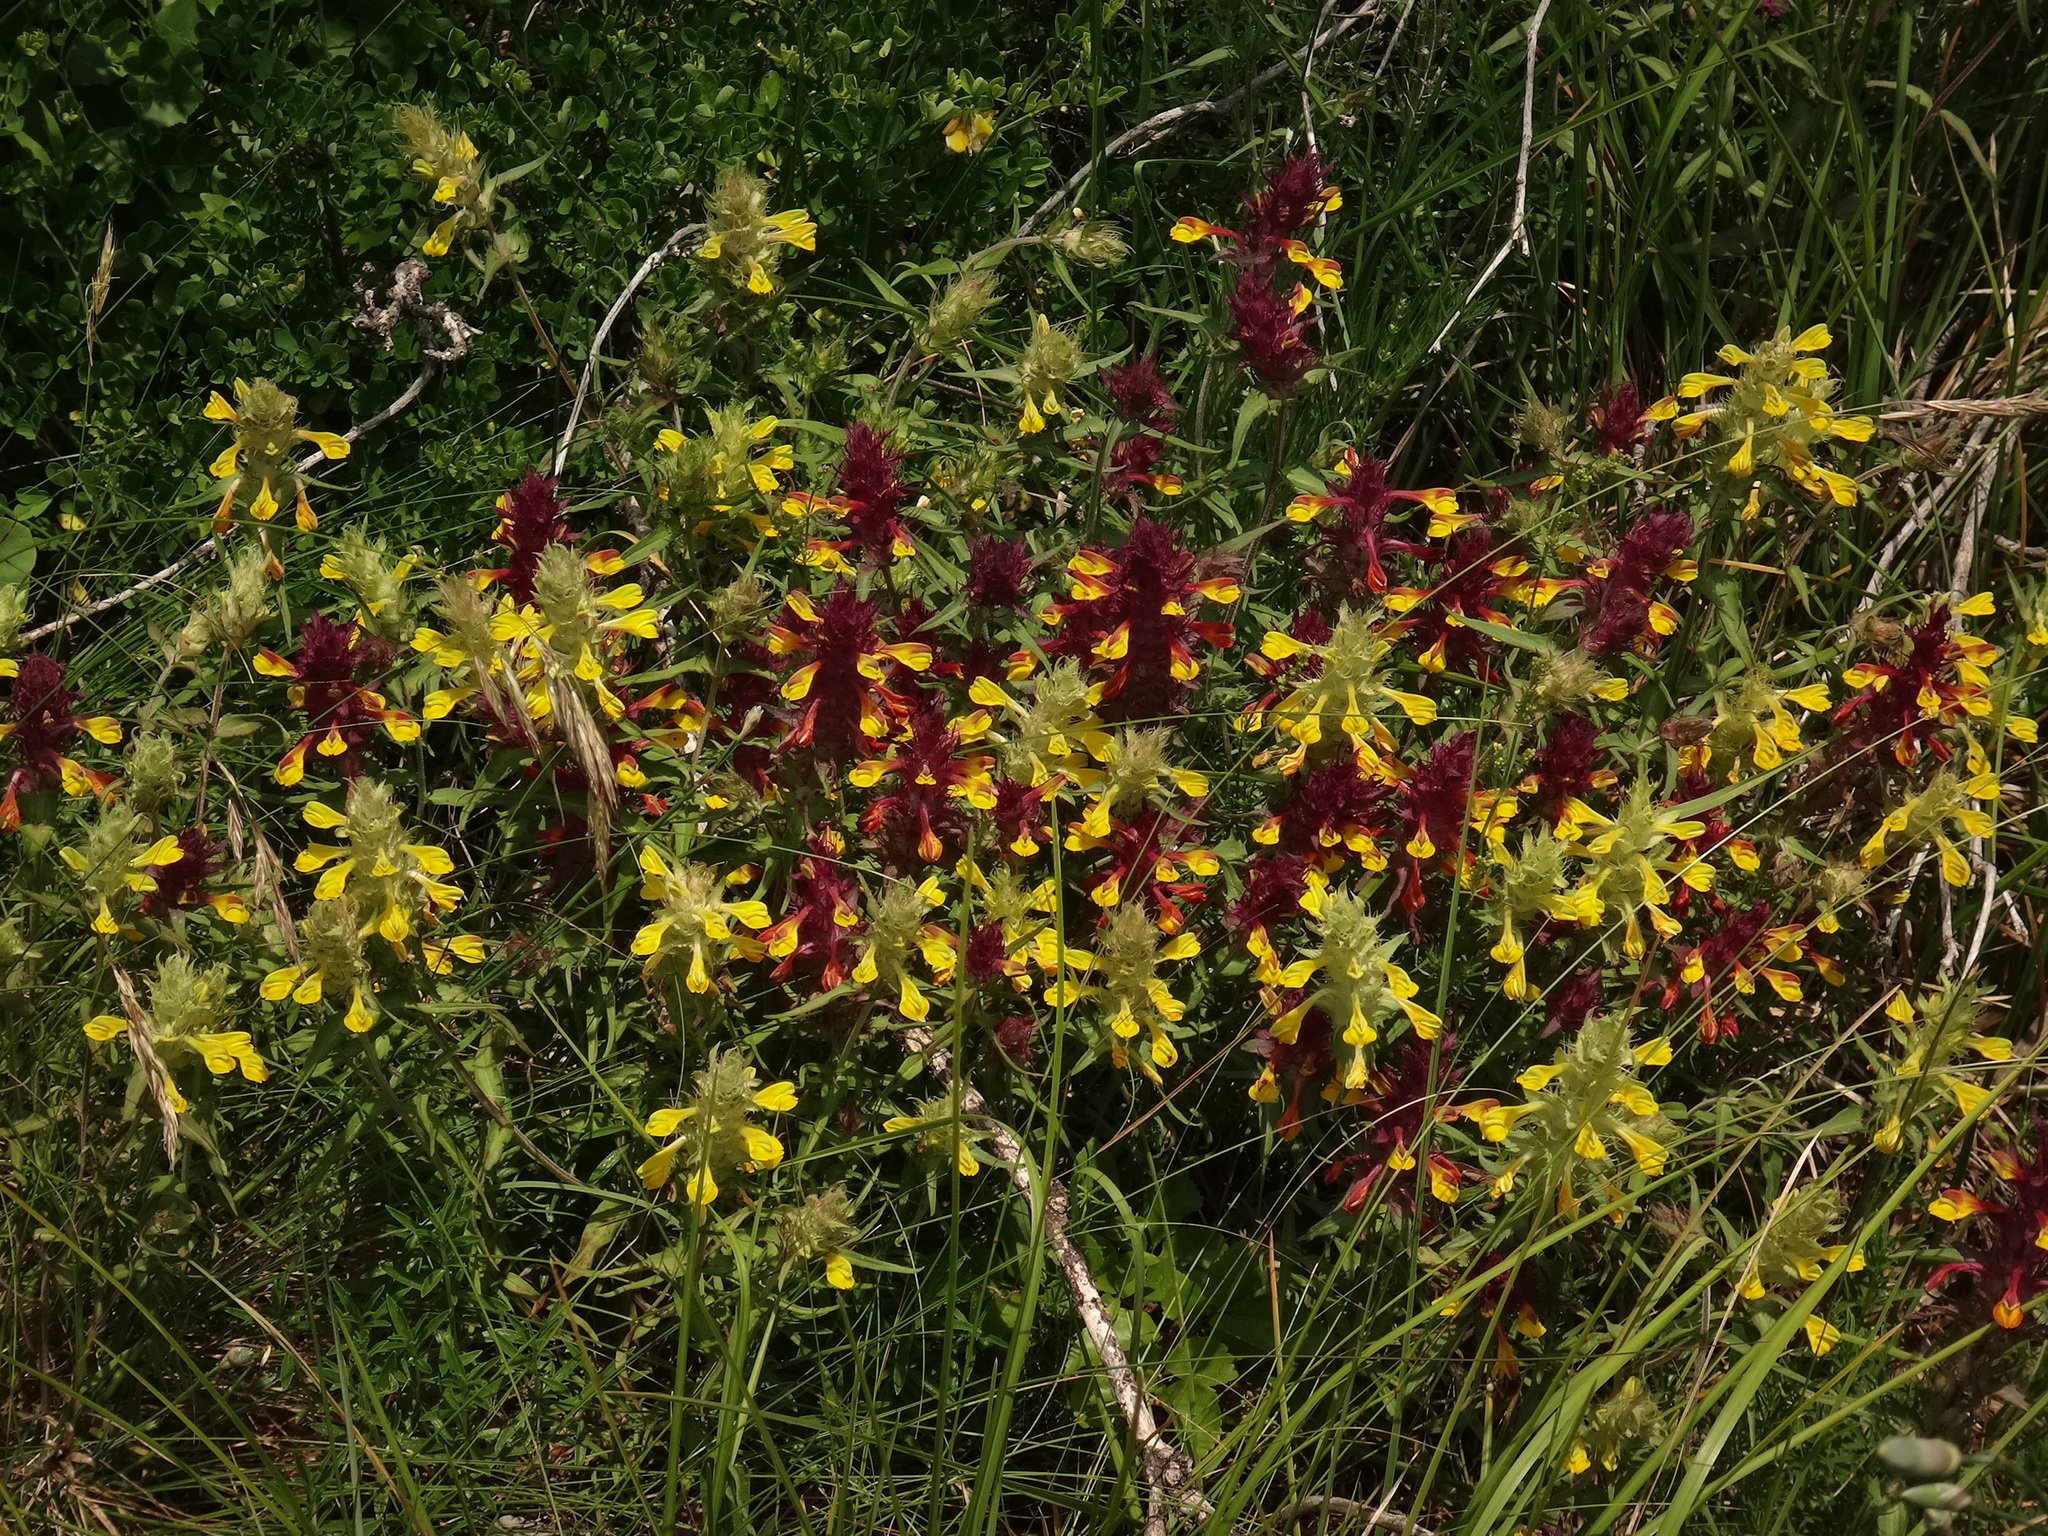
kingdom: Plantae
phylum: Tracheophyta
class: Magnoliopsida
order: Lamiales
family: Orobanchaceae
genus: Melampyrum
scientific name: Melampyrum barbatum
